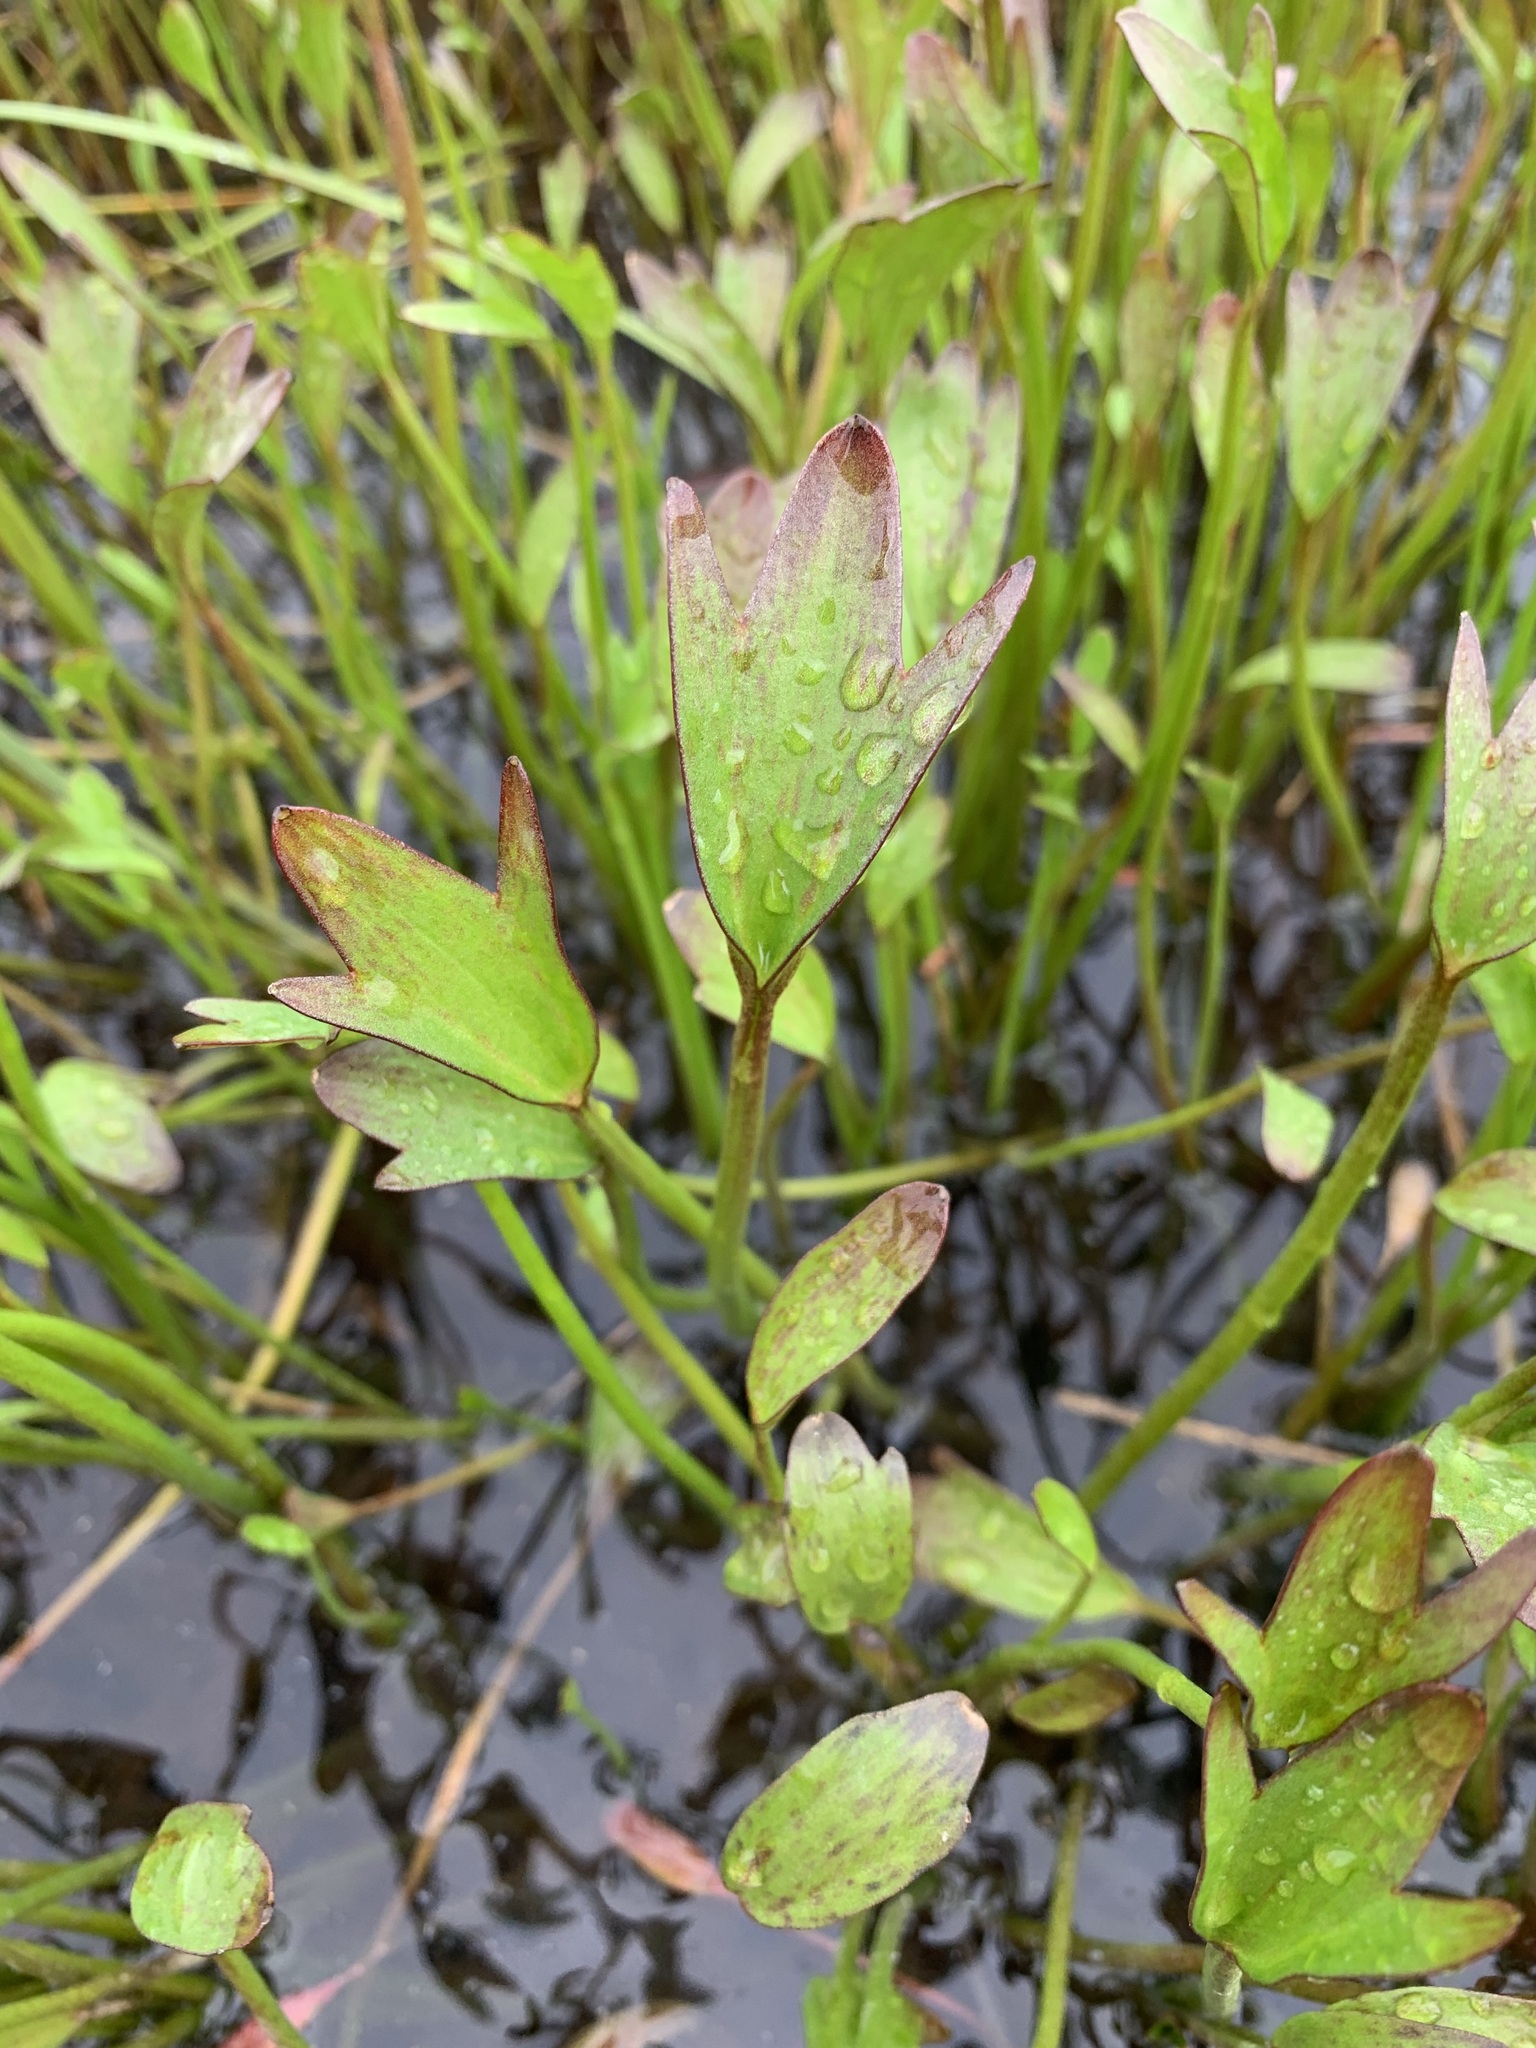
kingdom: Plantae
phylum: Tracheophyta
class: Magnoliopsida
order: Ranunculales
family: Ranunculaceae
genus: Coptidium
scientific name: Coptidium pallasii
